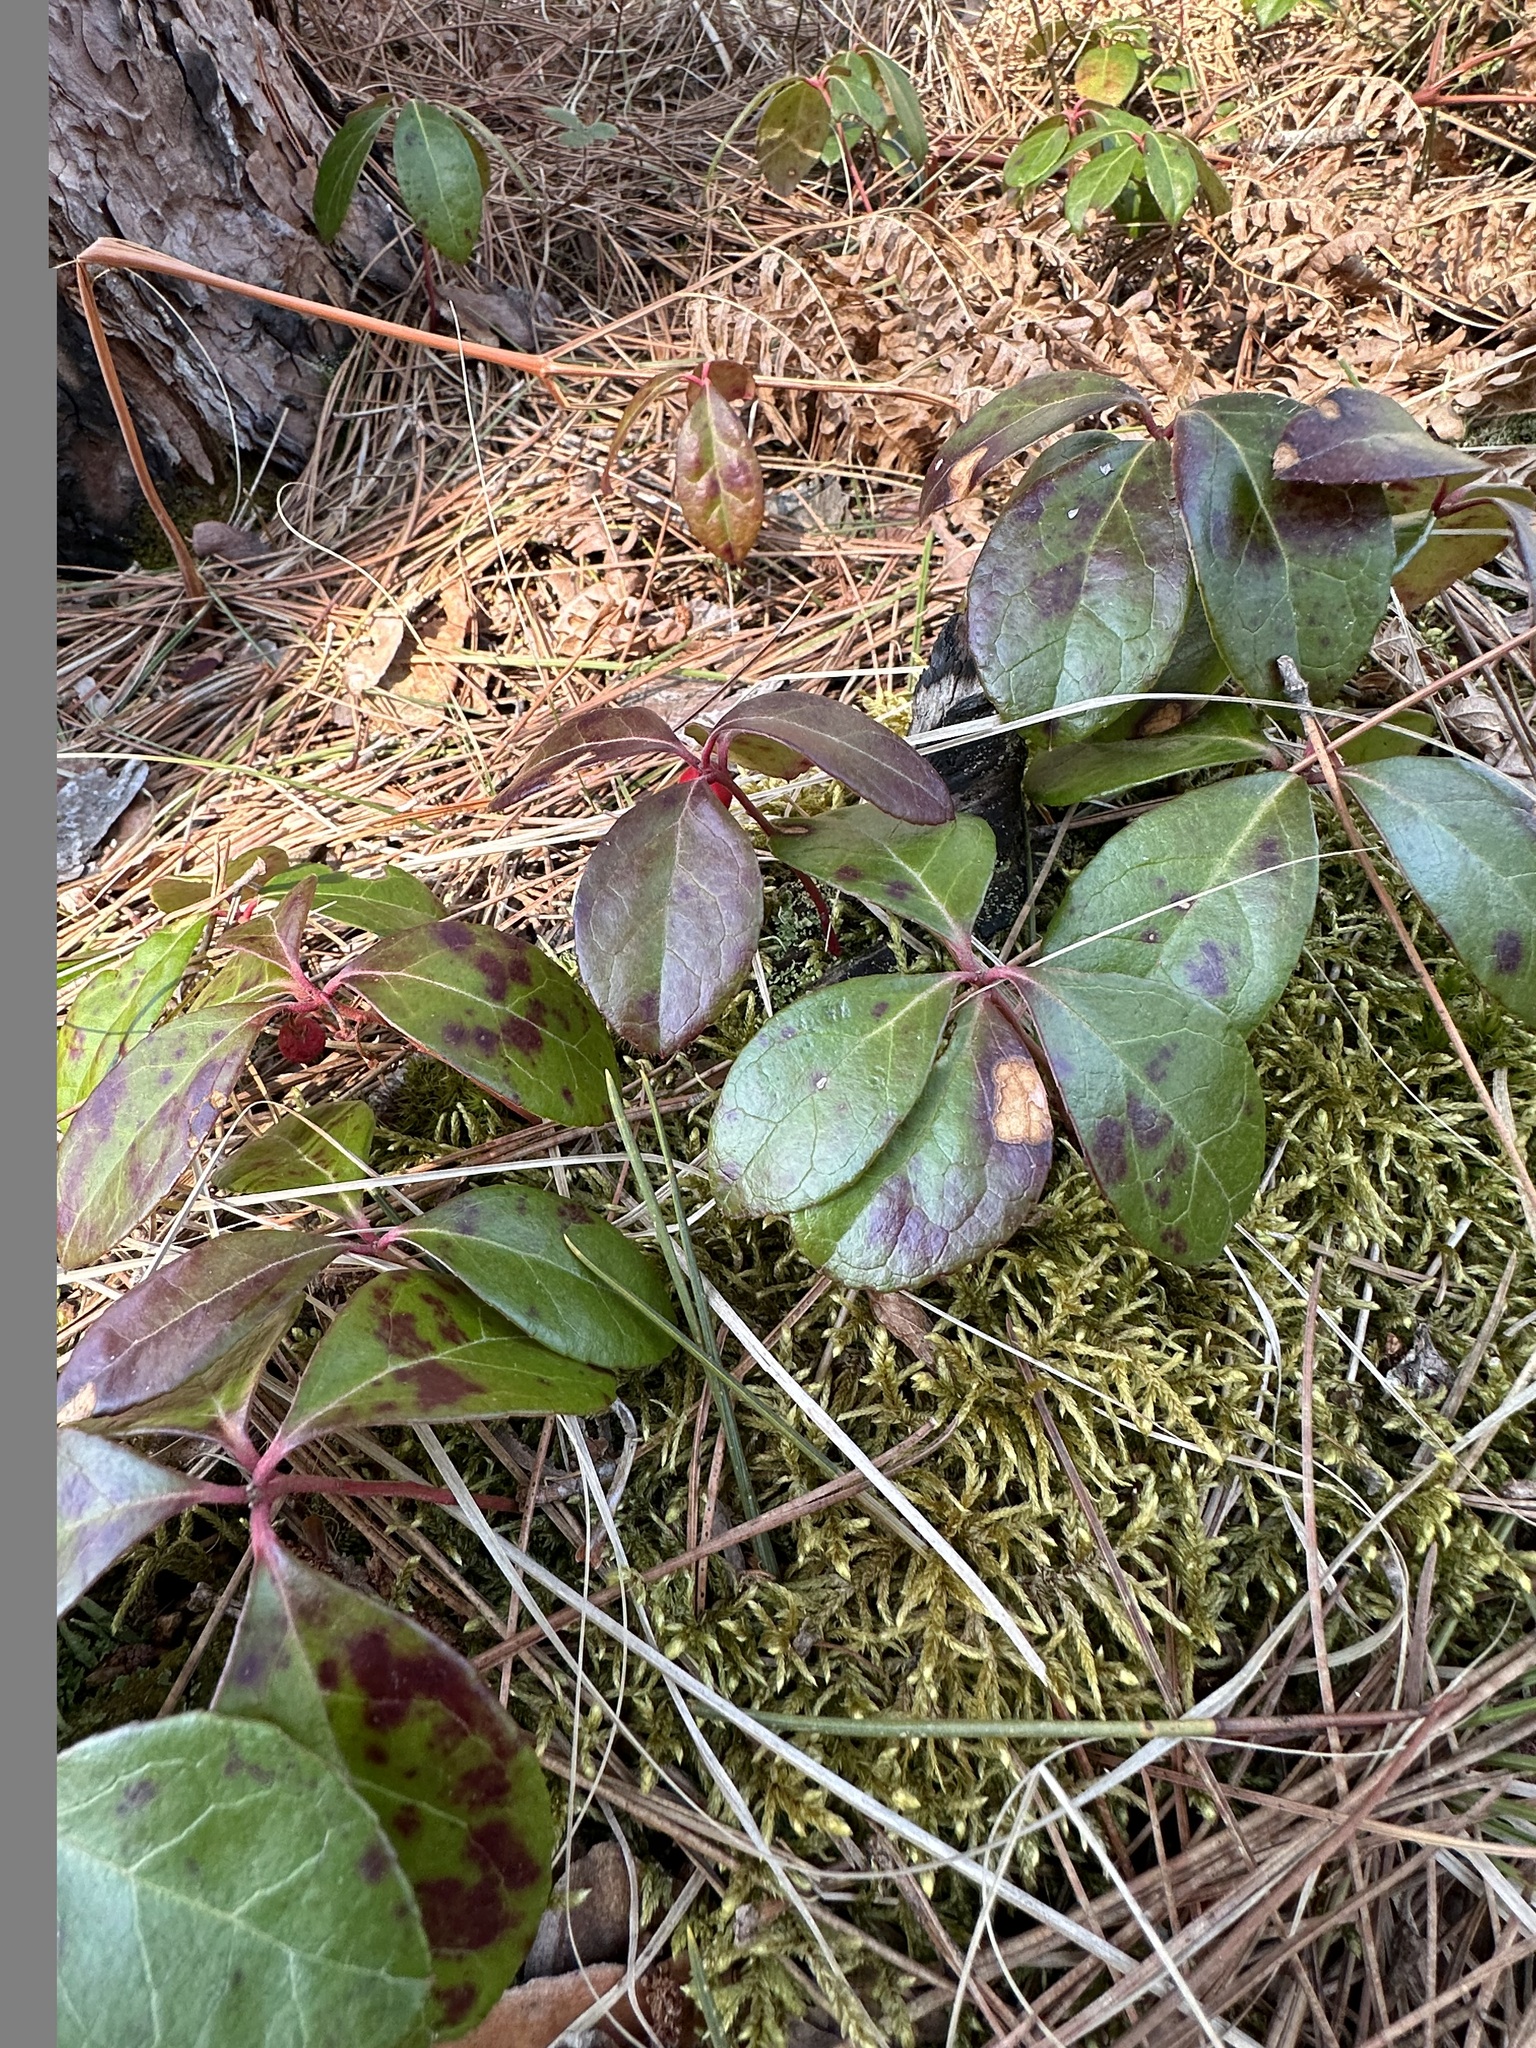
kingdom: Plantae
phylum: Tracheophyta
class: Magnoliopsida
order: Ericales
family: Ericaceae
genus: Gaultheria
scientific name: Gaultheria procumbens
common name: Checkerberry
